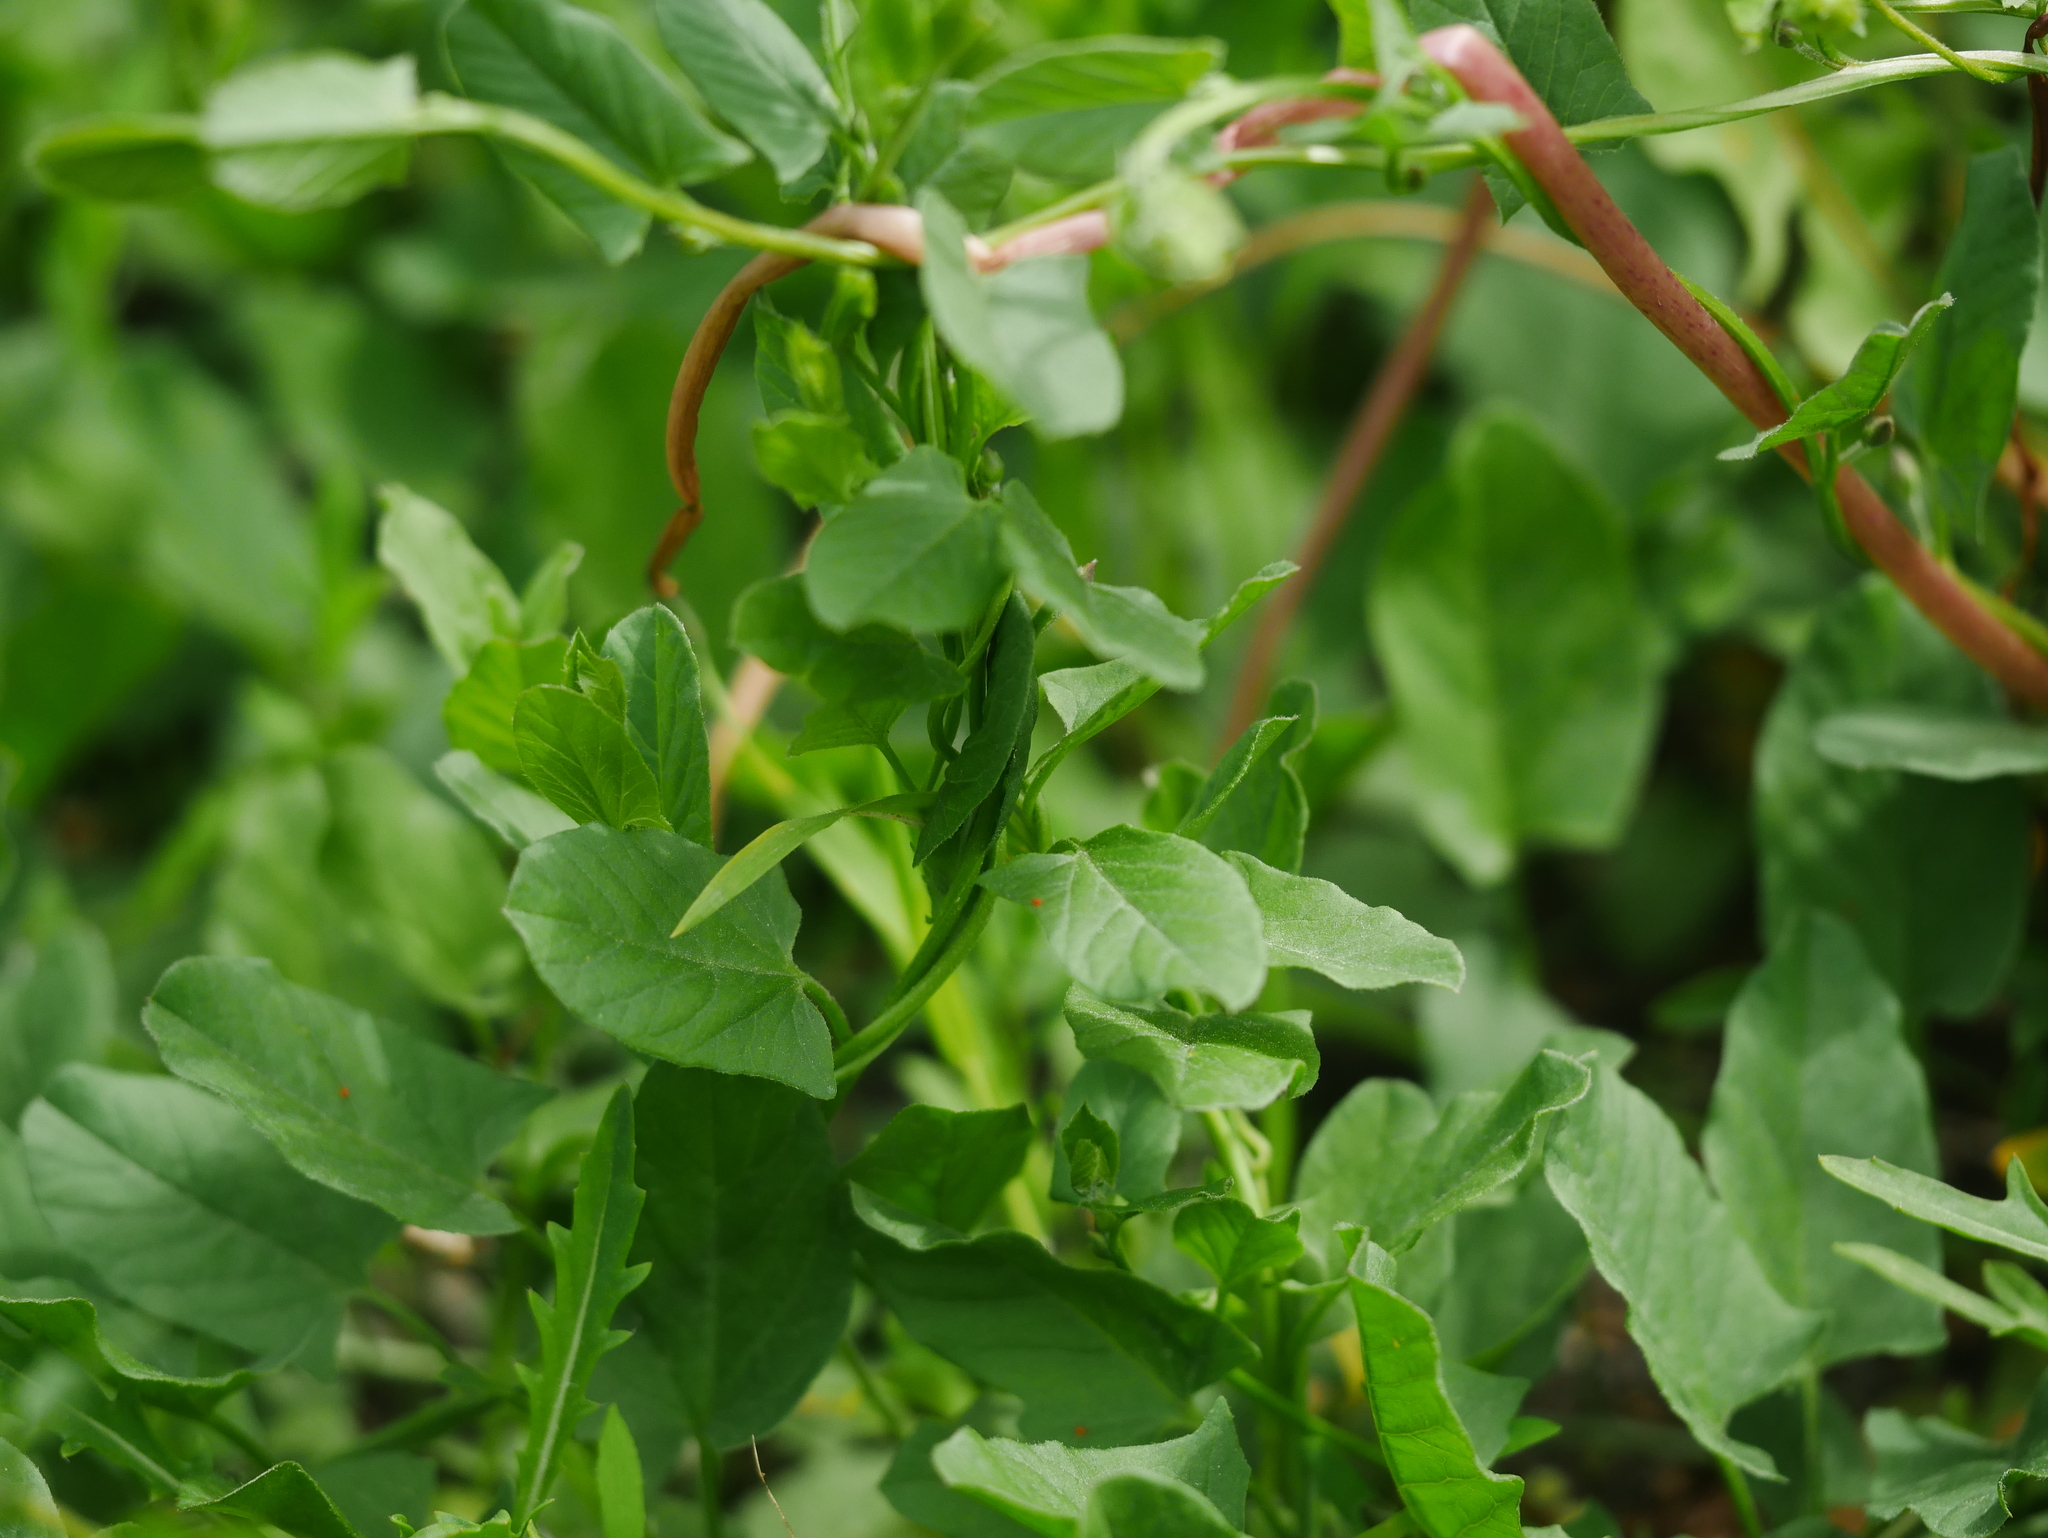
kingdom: Plantae
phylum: Tracheophyta
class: Magnoliopsida
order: Solanales
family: Convolvulaceae
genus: Convolvulus
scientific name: Convolvulus arvensis
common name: Field bindweed
